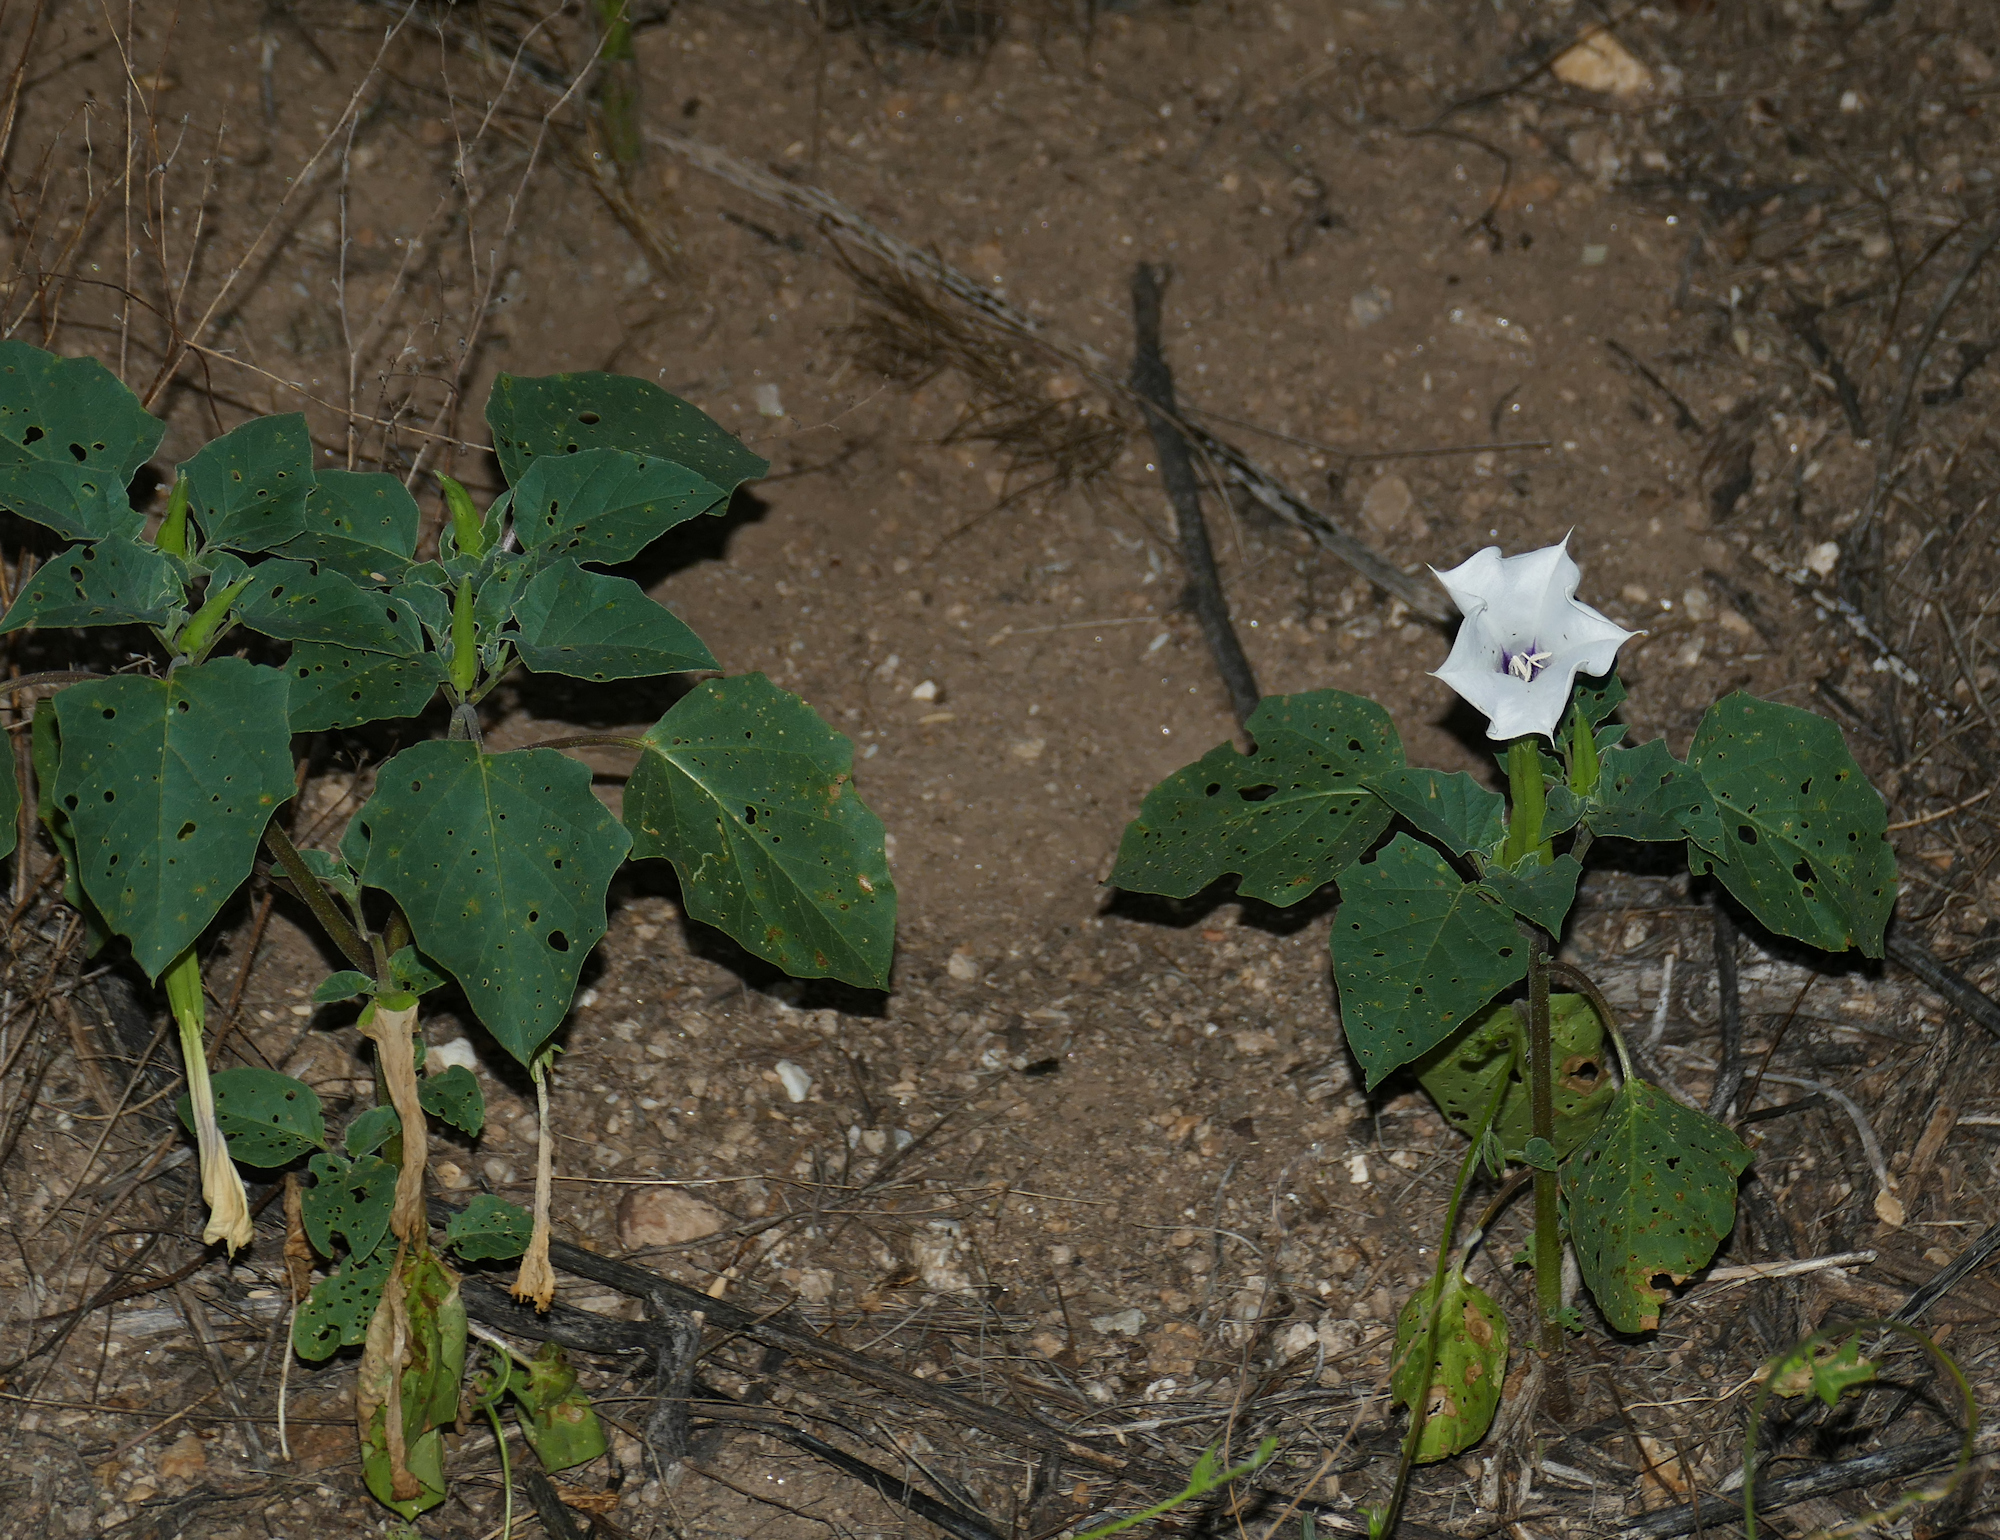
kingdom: Plantae
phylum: Tracheophyta
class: Magnoliopsida
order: Solanales
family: Solanaceae
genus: Datura
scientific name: Datura discolor
